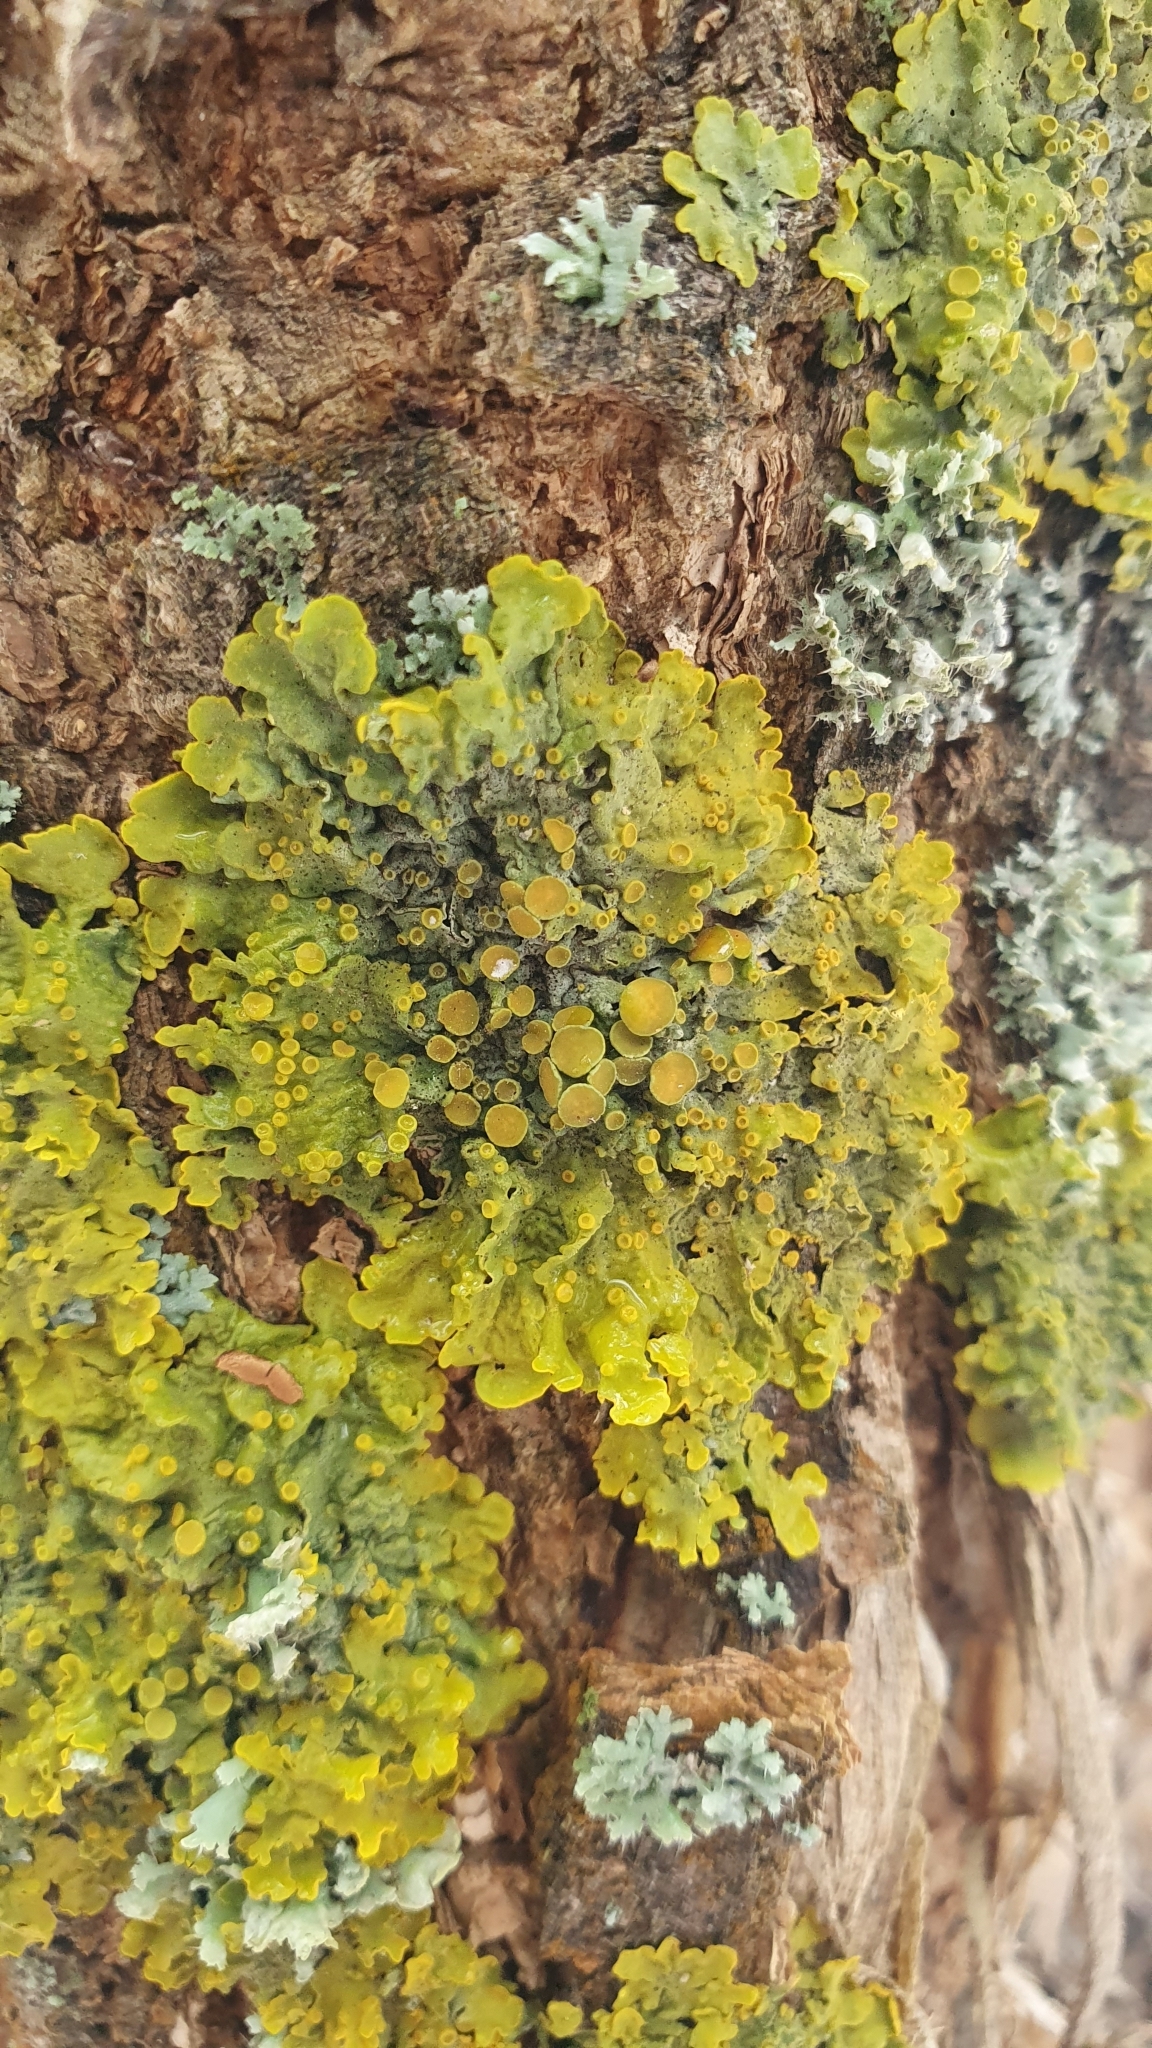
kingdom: Fungi
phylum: Ascomycota
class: Lecanoromycetes
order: Teloschistales
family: Teloschistaceae
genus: Xanthoria
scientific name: Xanthoria parietina
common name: Common orange lichen
